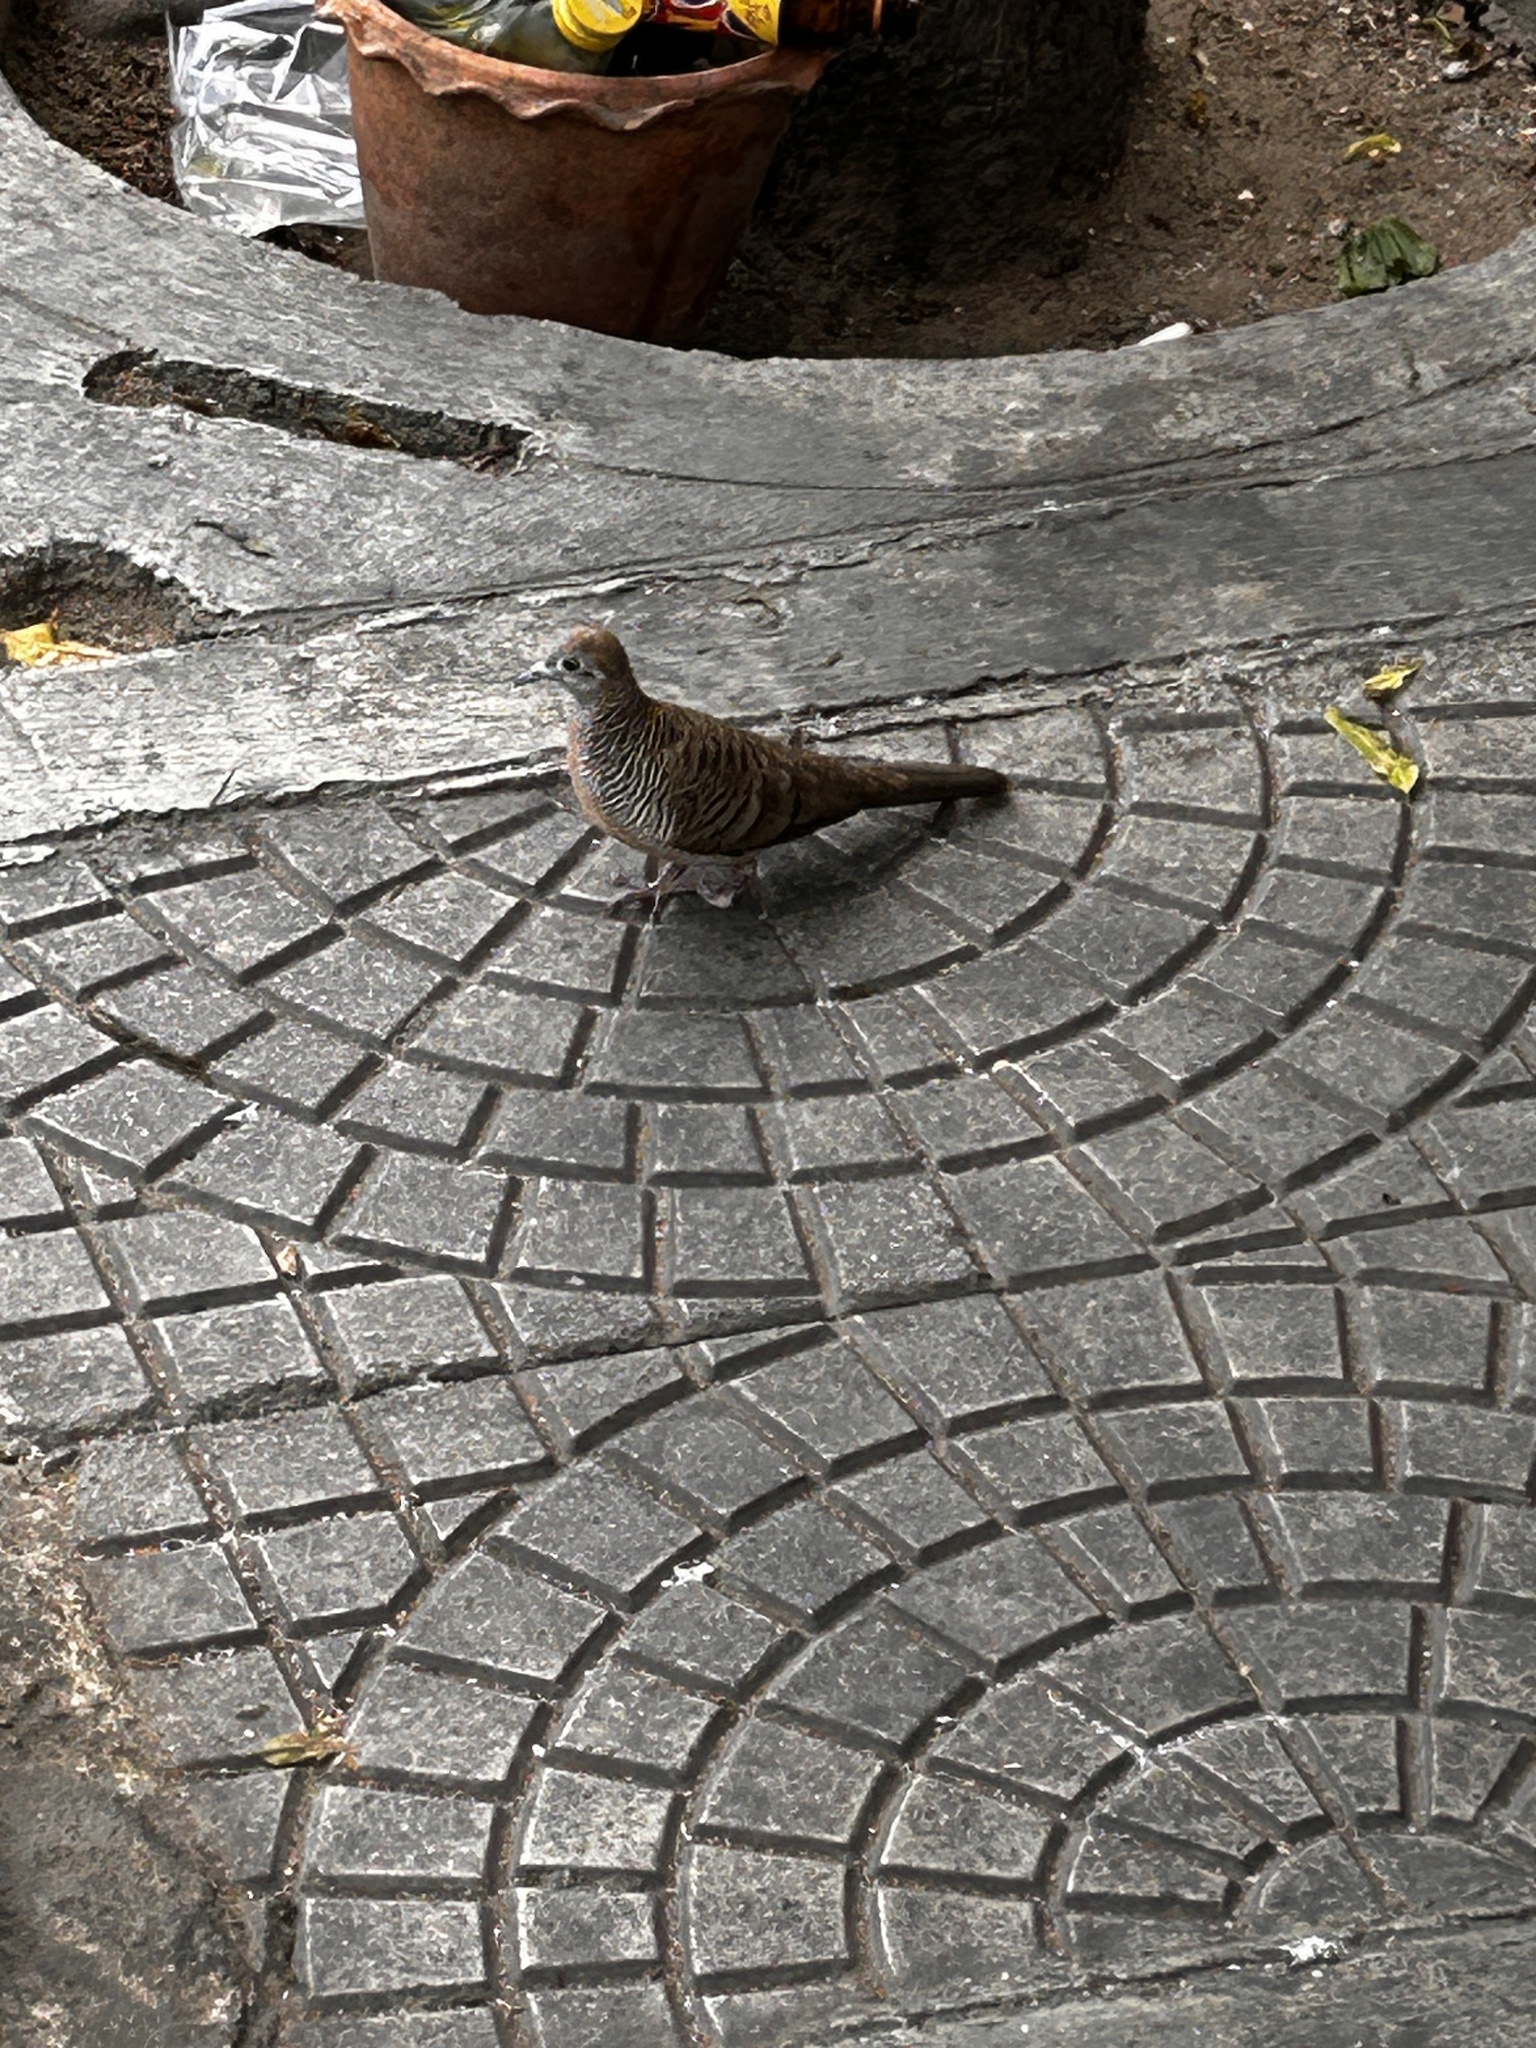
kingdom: Animalia
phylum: Chordata
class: Aves
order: Columbiformes
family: Columbidae
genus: Geopelia
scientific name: Geopelia striata
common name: Zebra dove
